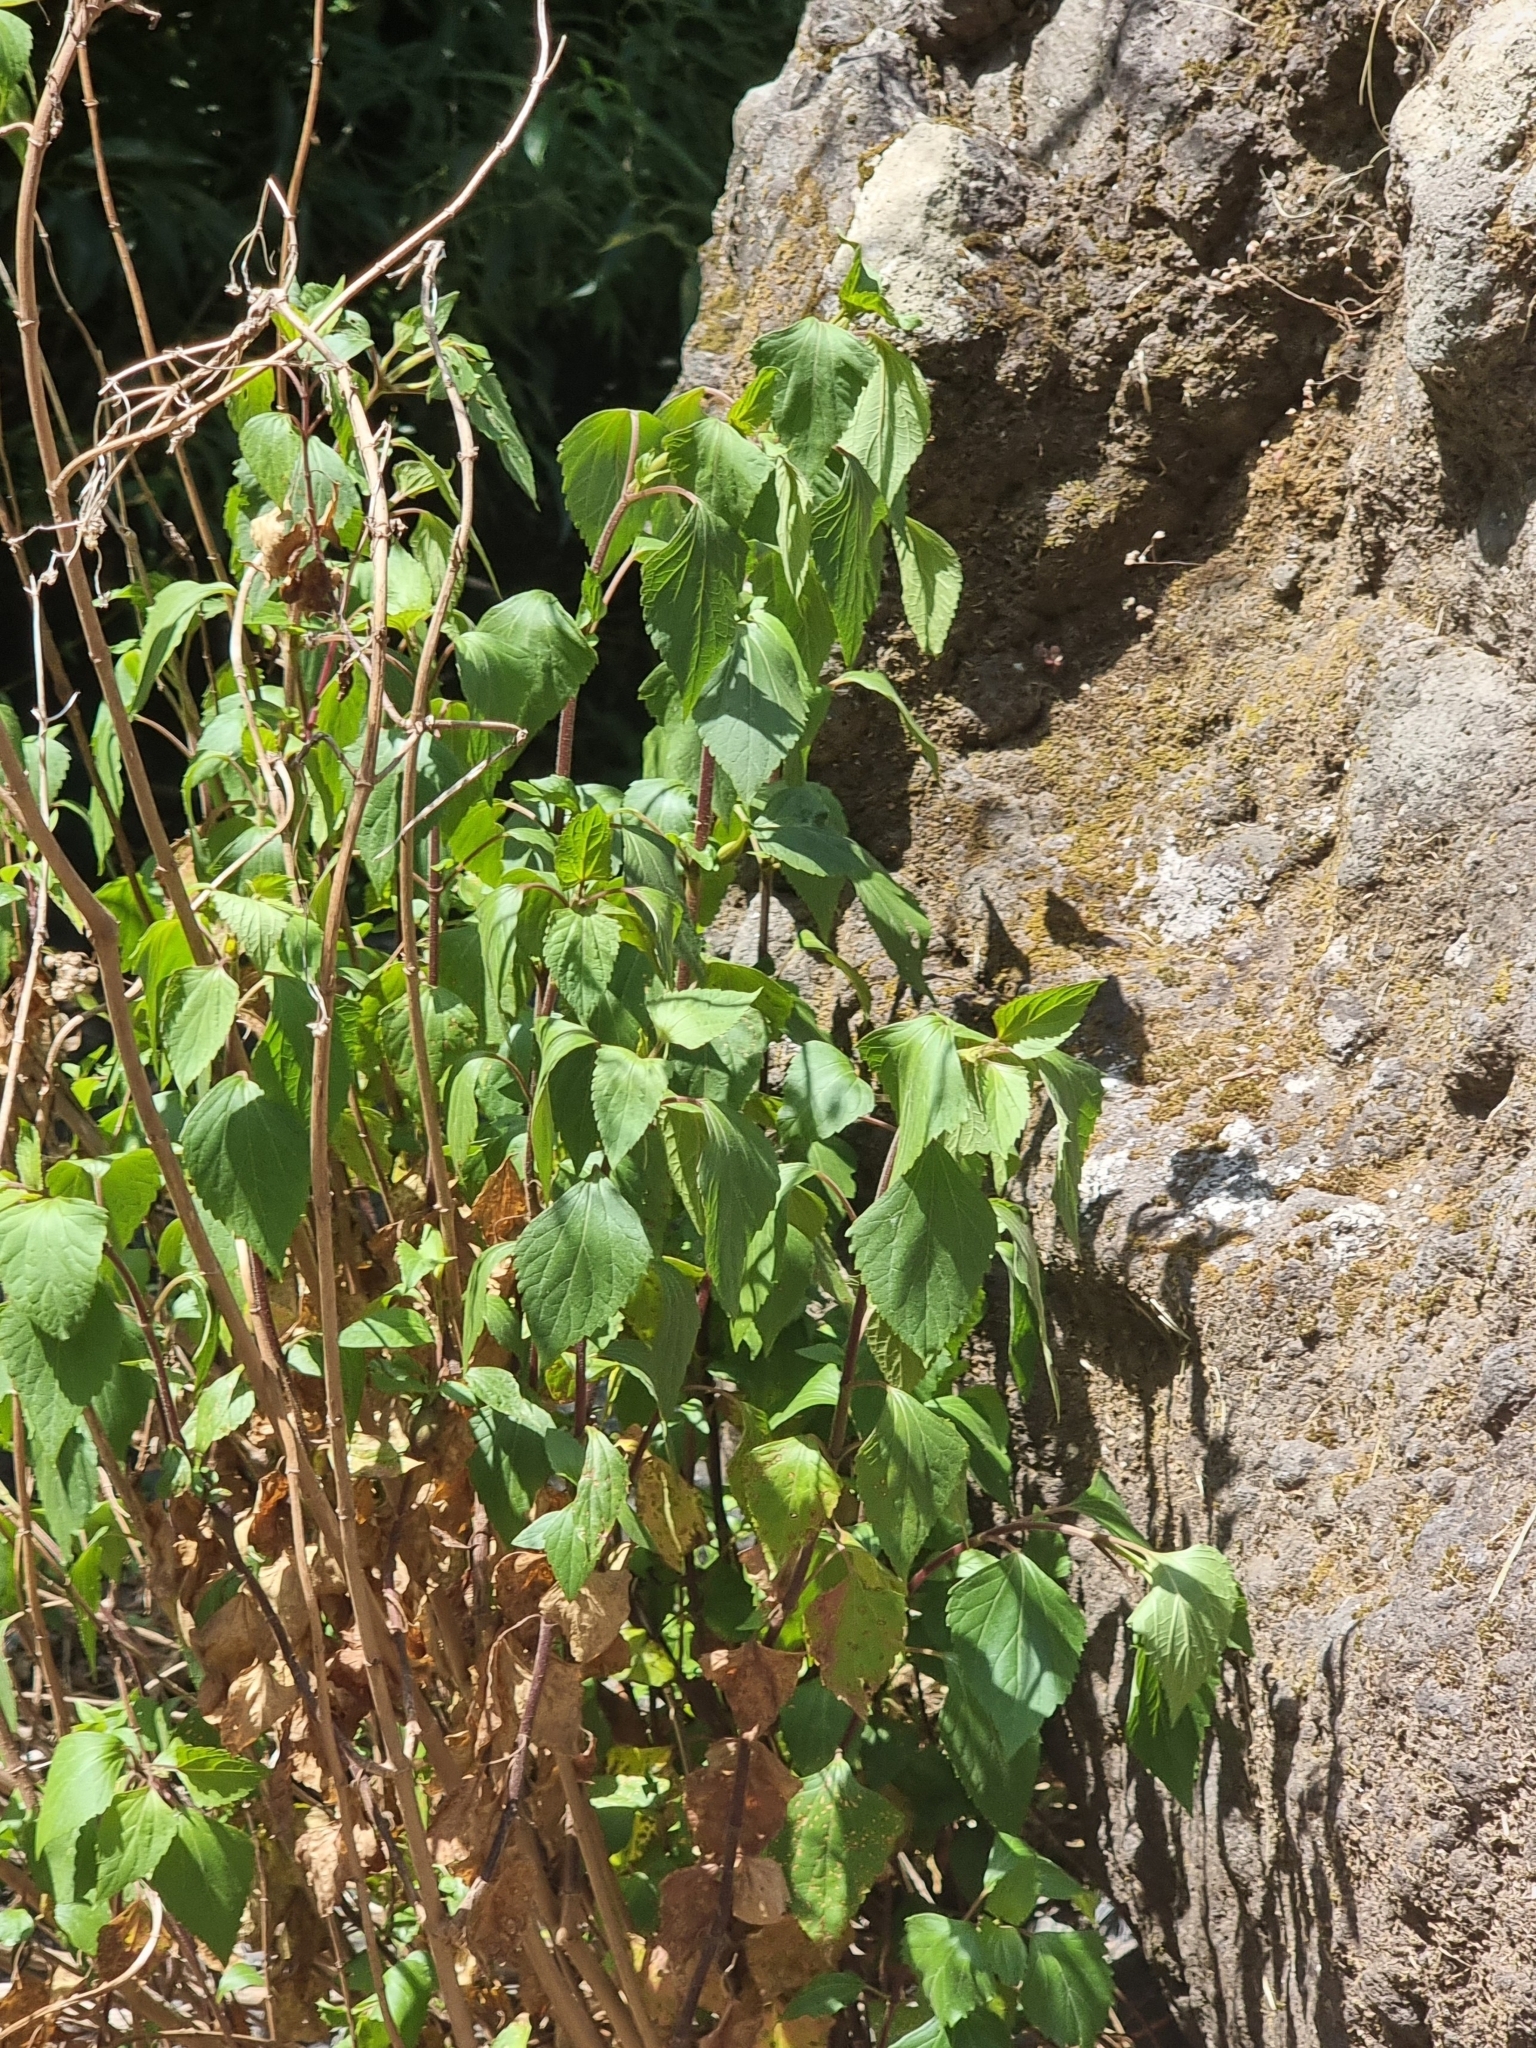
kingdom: Plantae
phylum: Tracheophyta
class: Magnoliopsida
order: Asterales
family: Asteraceae
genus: Ageratina
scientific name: Ageratina adenophora
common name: Sticky snakeroot
